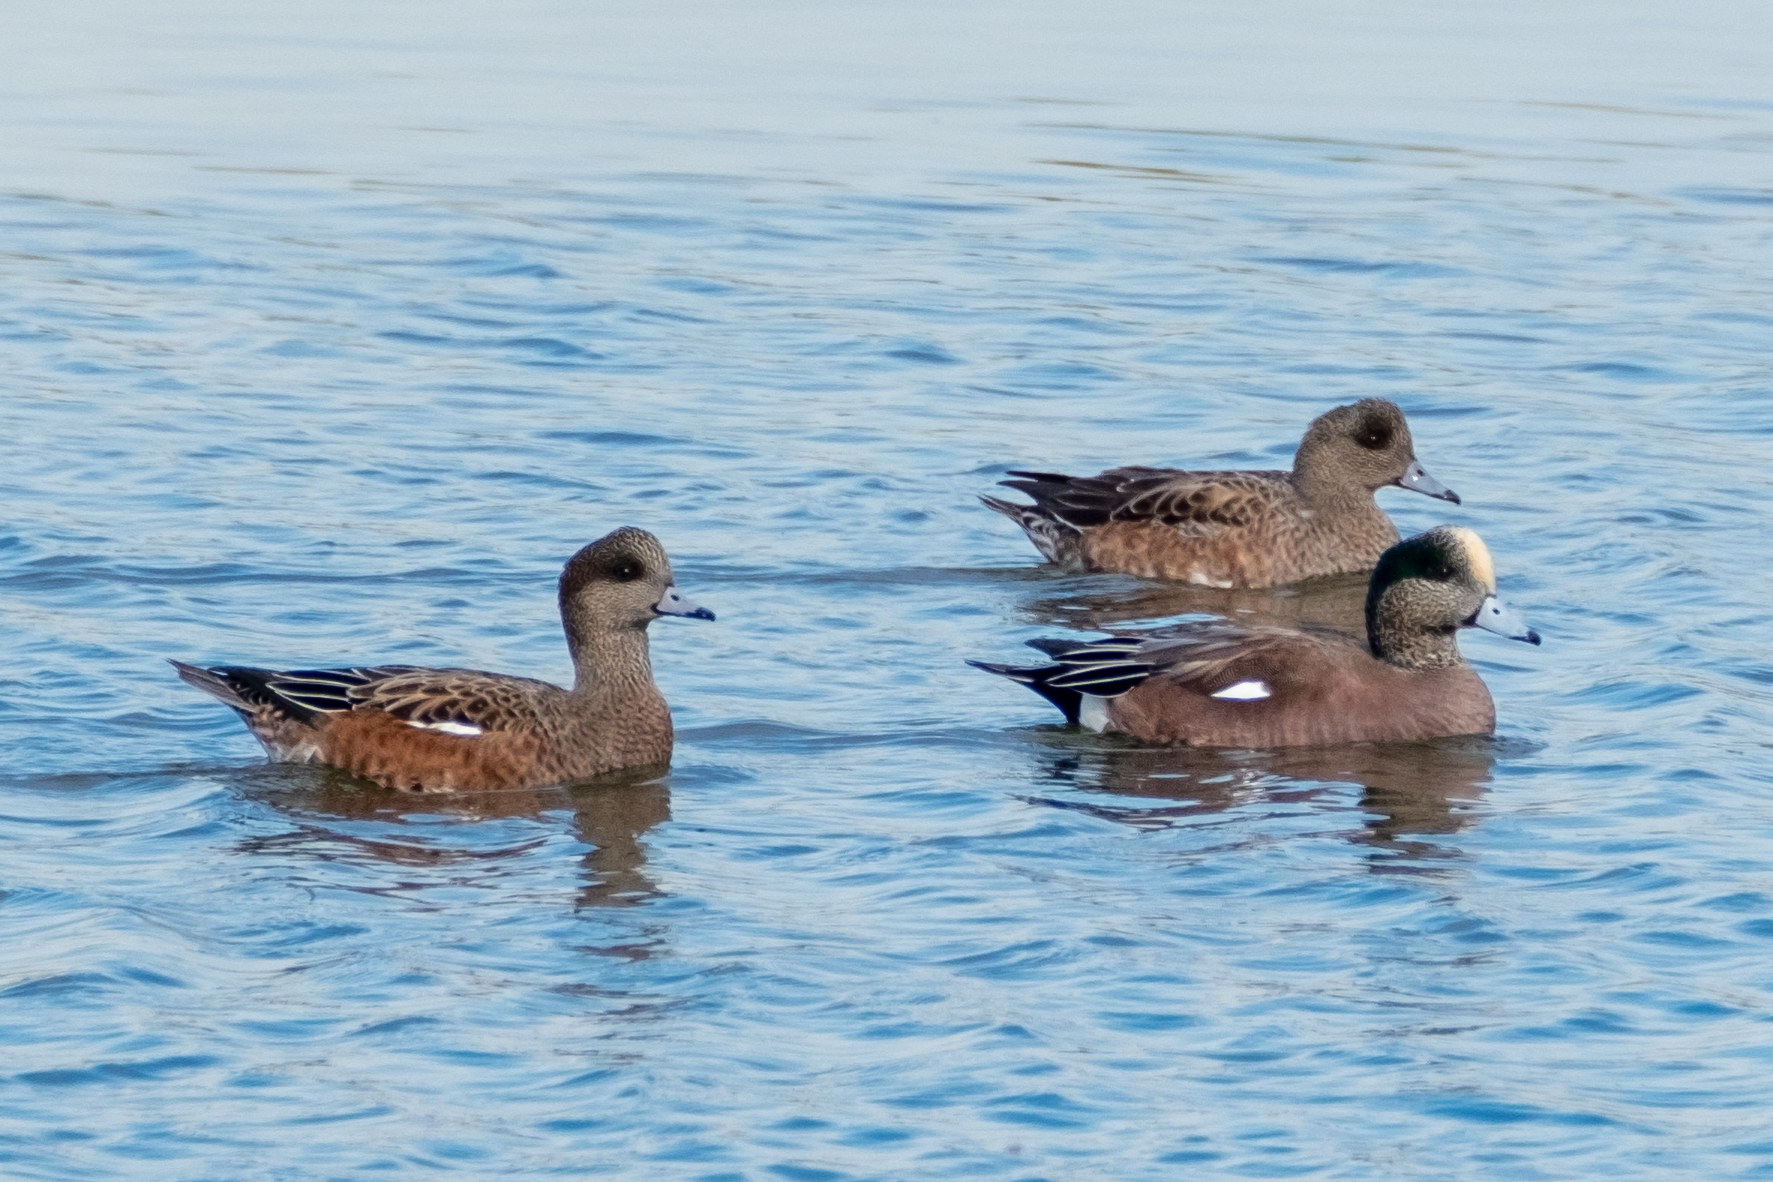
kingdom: Animalia
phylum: Chordata
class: Aves
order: Anseriformes
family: Anatidae
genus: Mareca
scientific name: Mareca americana
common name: American wigeon
